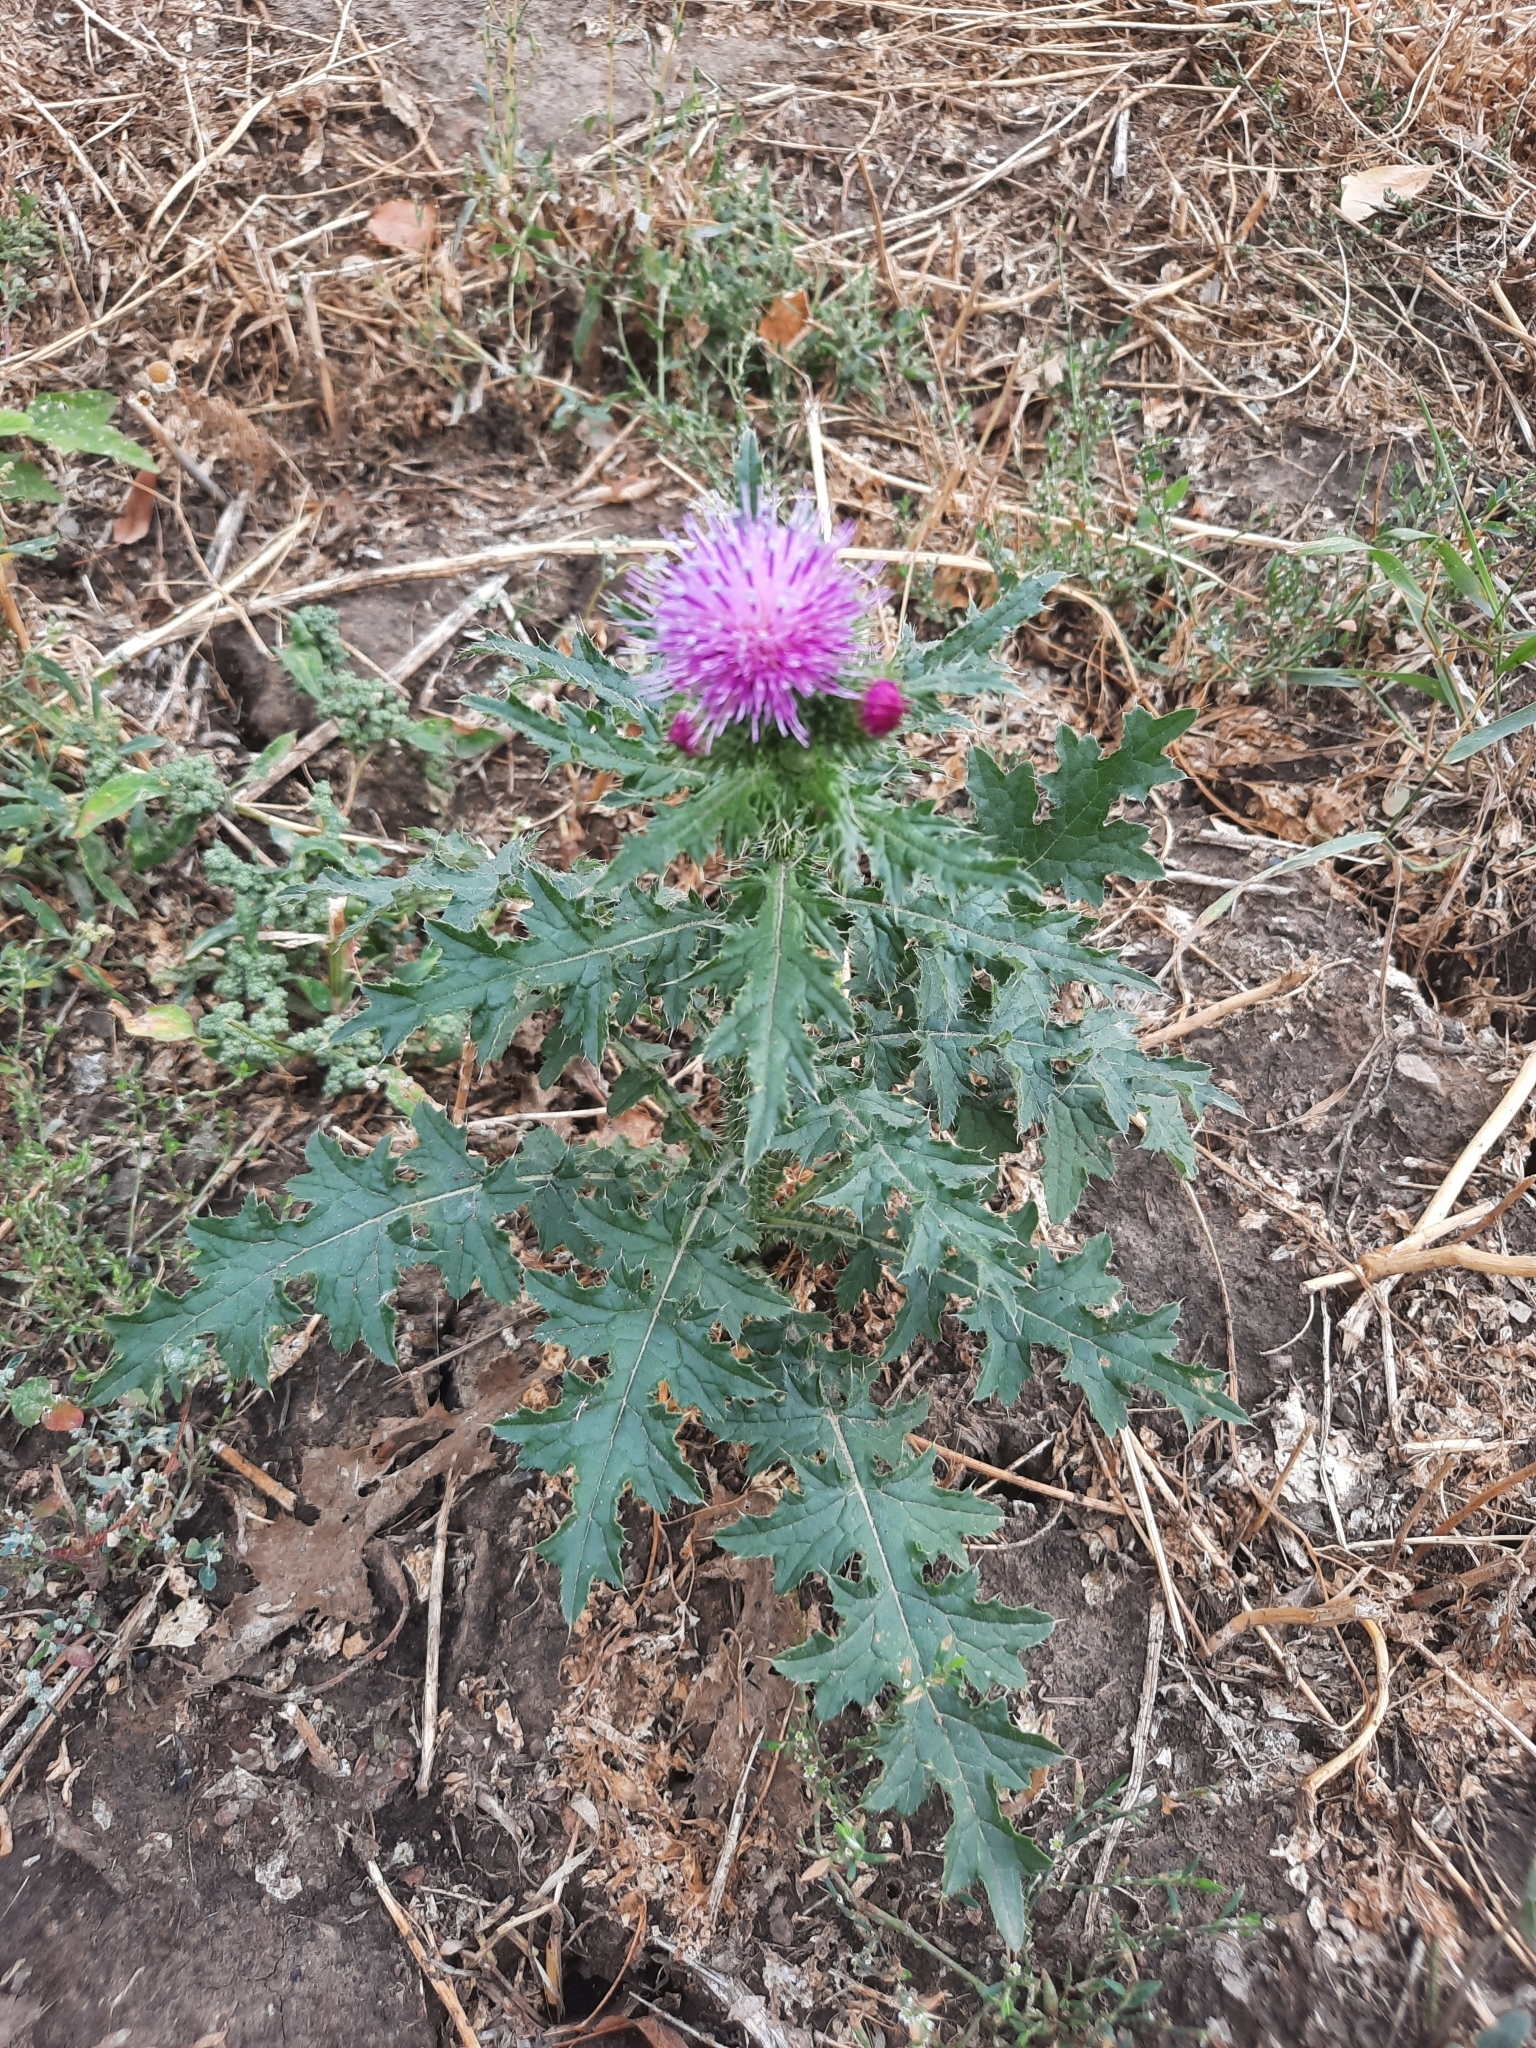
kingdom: Plantae
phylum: Tracheophyta
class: Magnoliopsida
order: Asterales
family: Asteraceae
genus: Carduus
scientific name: Carduus crispus
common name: Welted thistle
